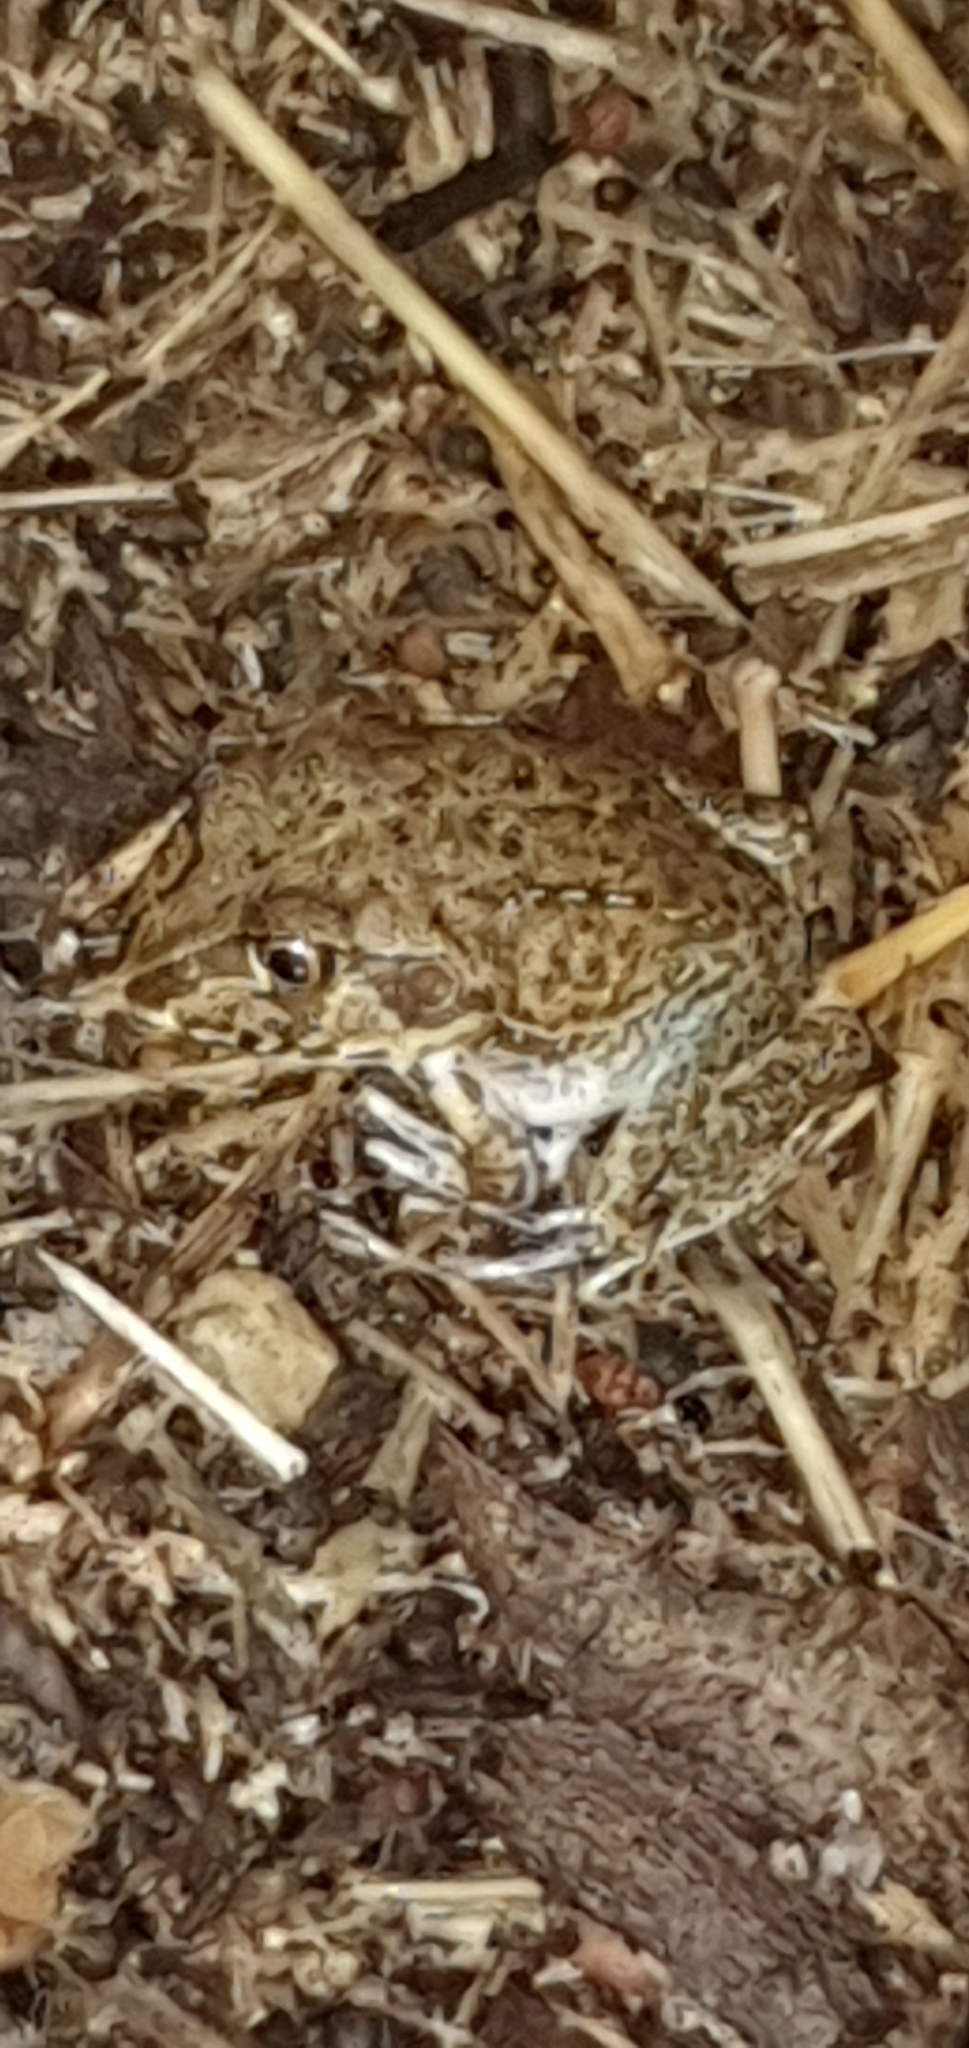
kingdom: Animalia
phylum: Chordata
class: Amphibia
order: Anura
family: Pelodryadidae
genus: Ranoidea
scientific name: Ranoidea novaehollandiae
